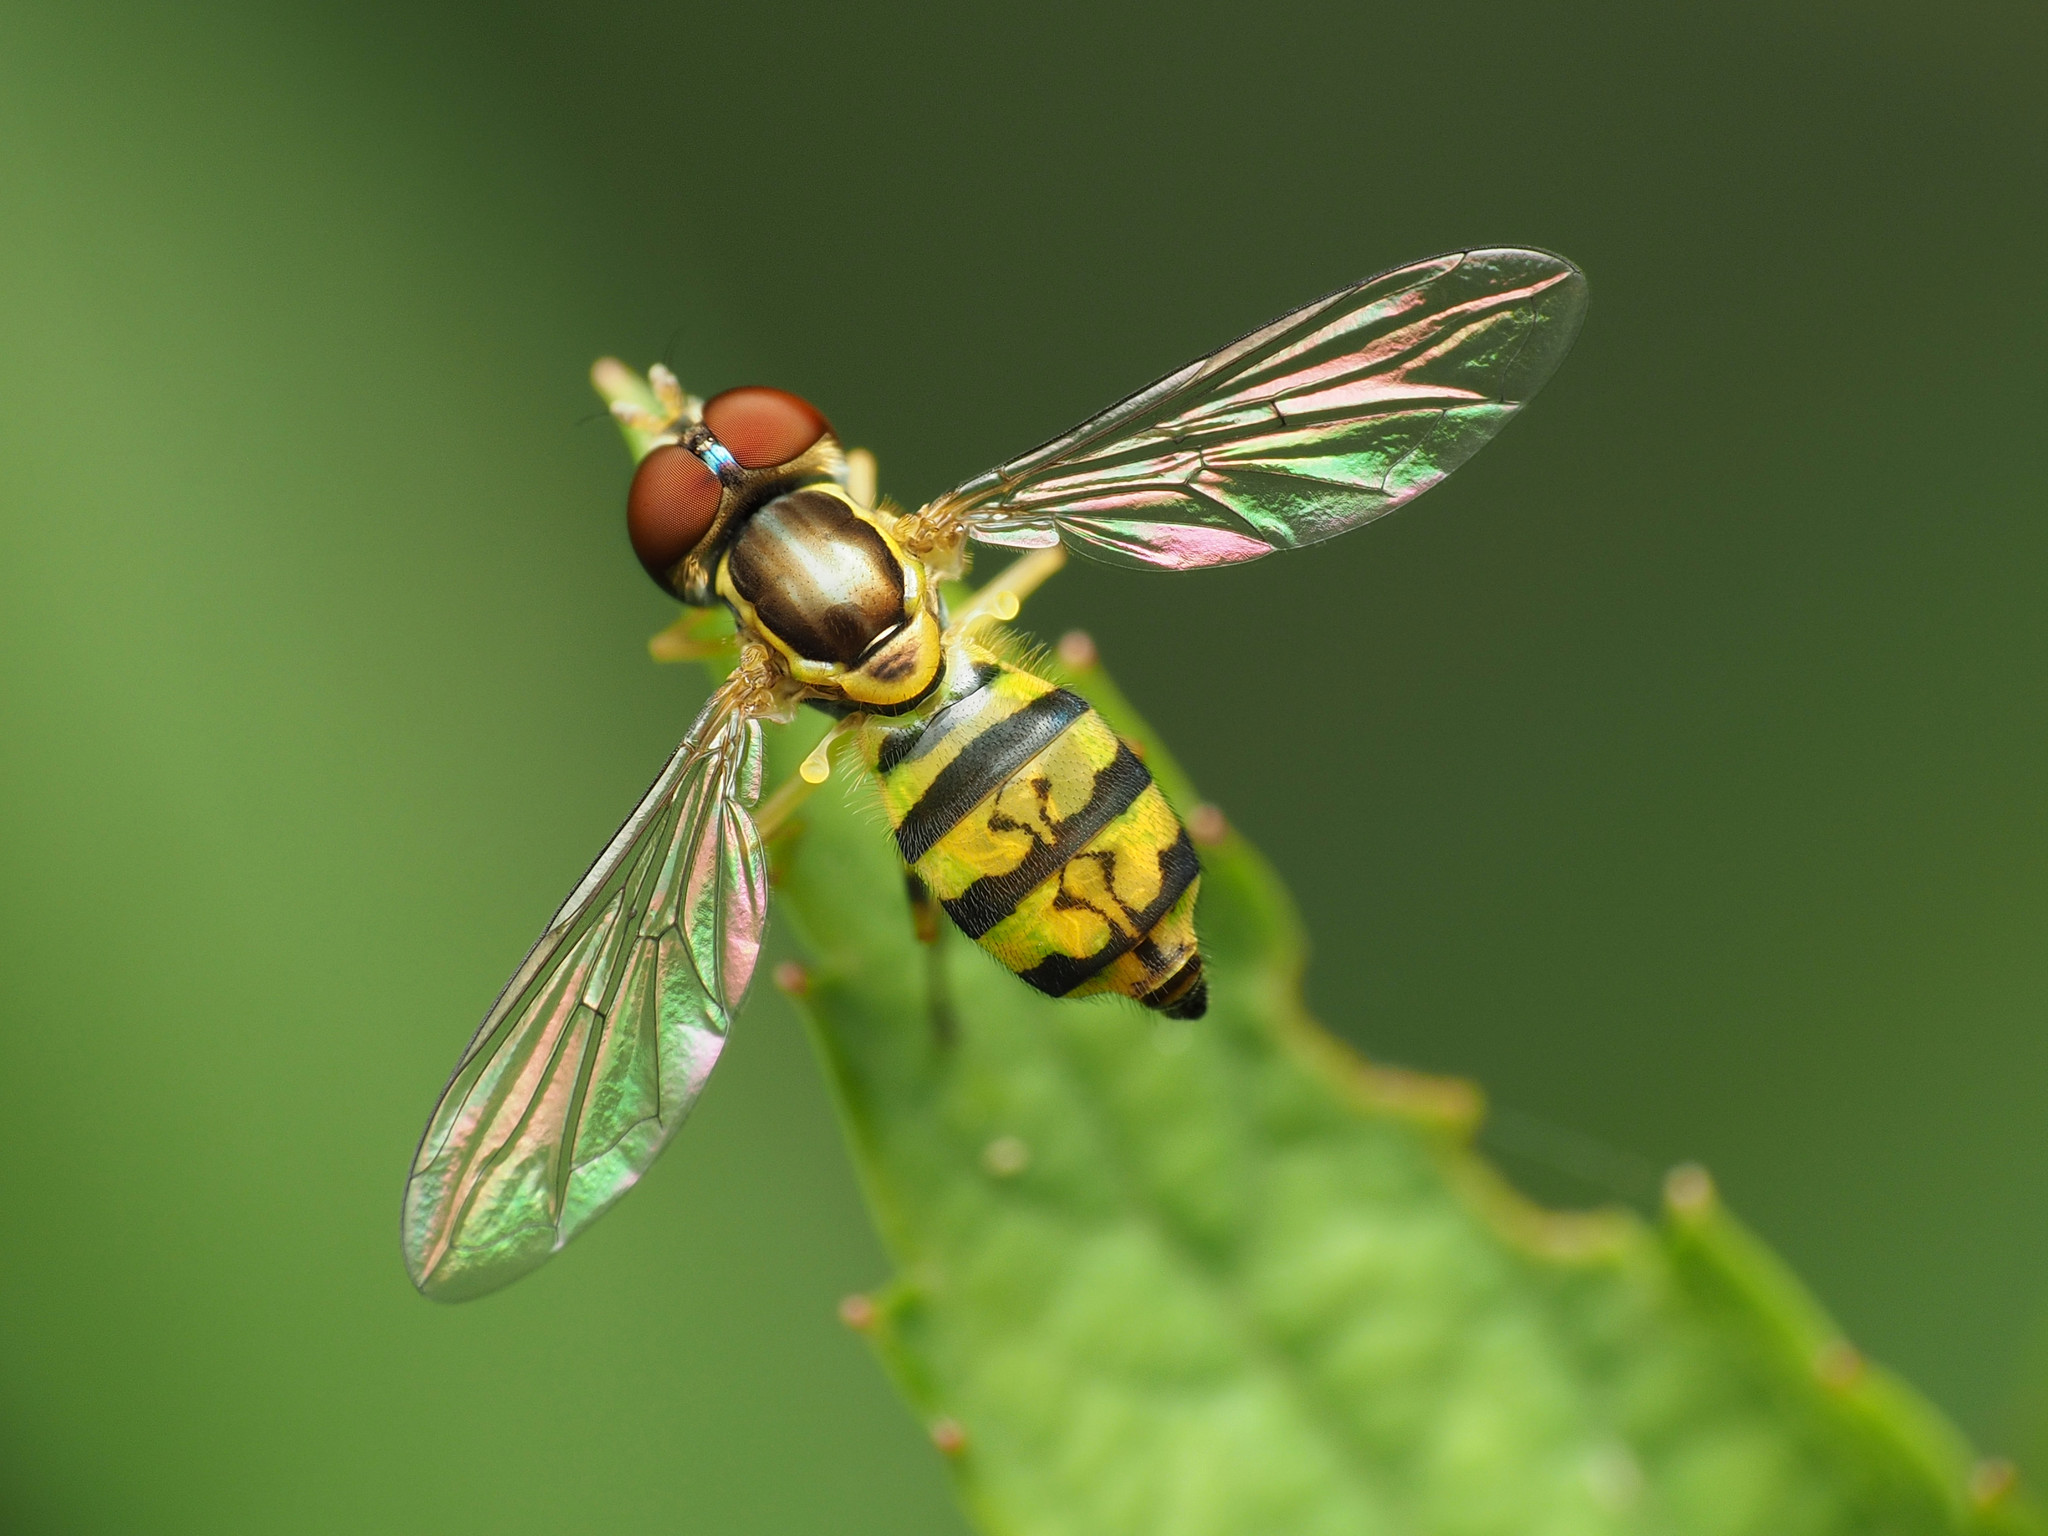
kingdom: Animalia
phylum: Arthropoda
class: Insecta
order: Diptera
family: Syrphidae
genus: Toxomerus
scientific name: Toxomerus geminatus
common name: Eastern calligrapher
